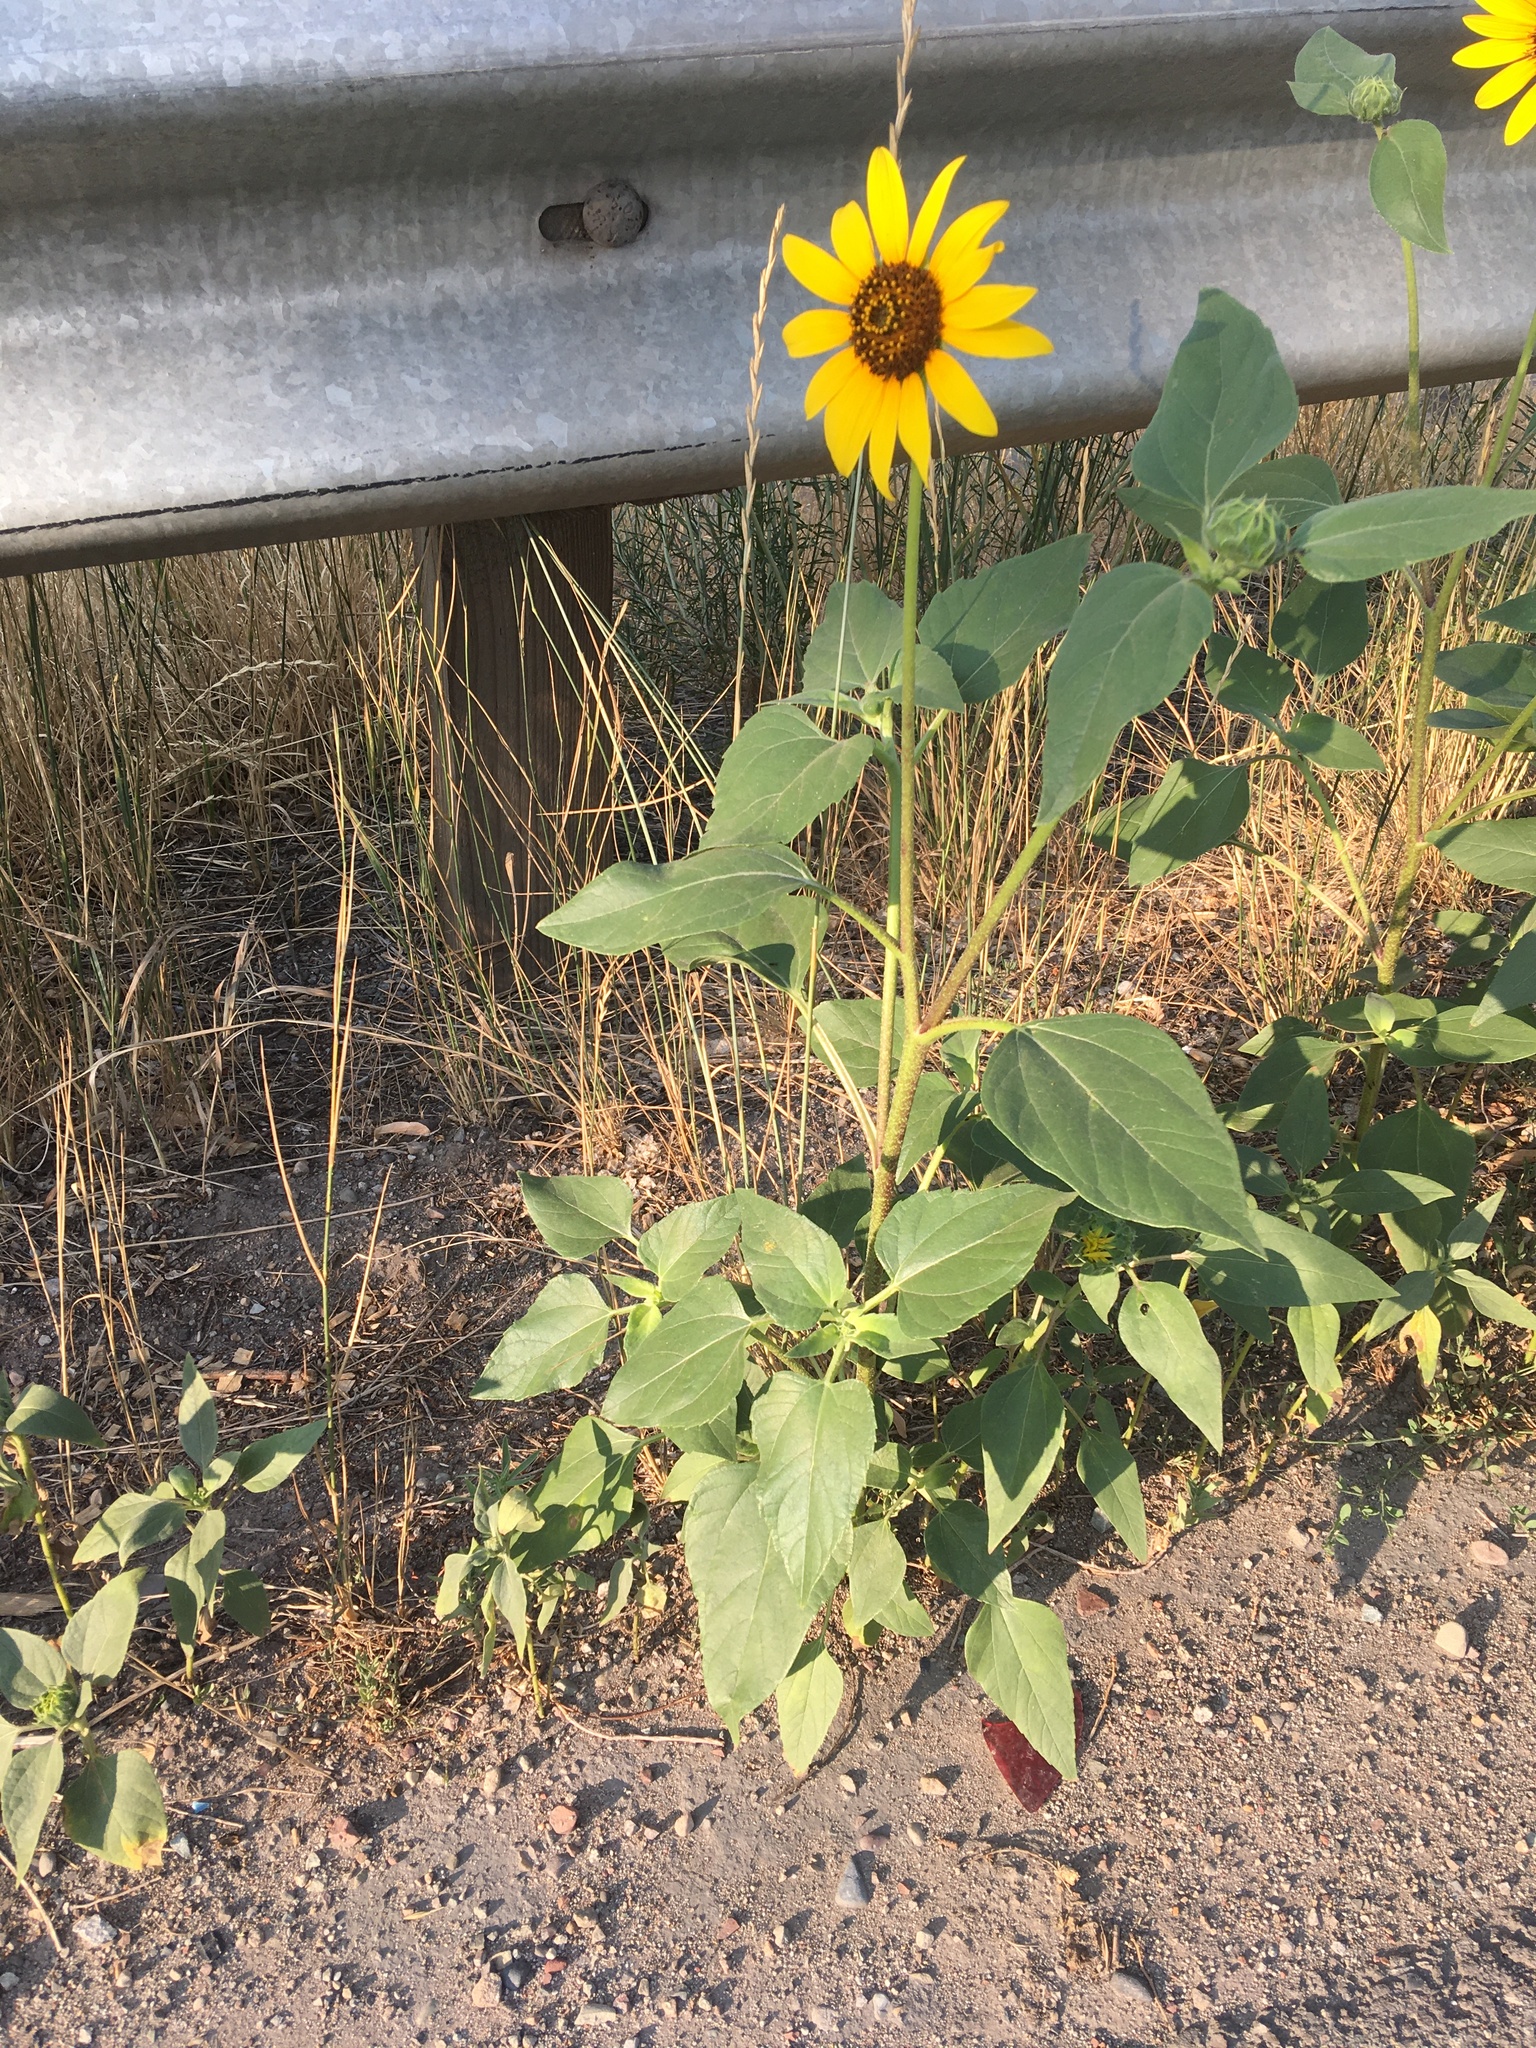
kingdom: Plantae
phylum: Tracheophyta
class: Magnoliopsida
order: Asterales
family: Asteraceae
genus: Helianthus
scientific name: Helianthus annuus
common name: Sunflower
